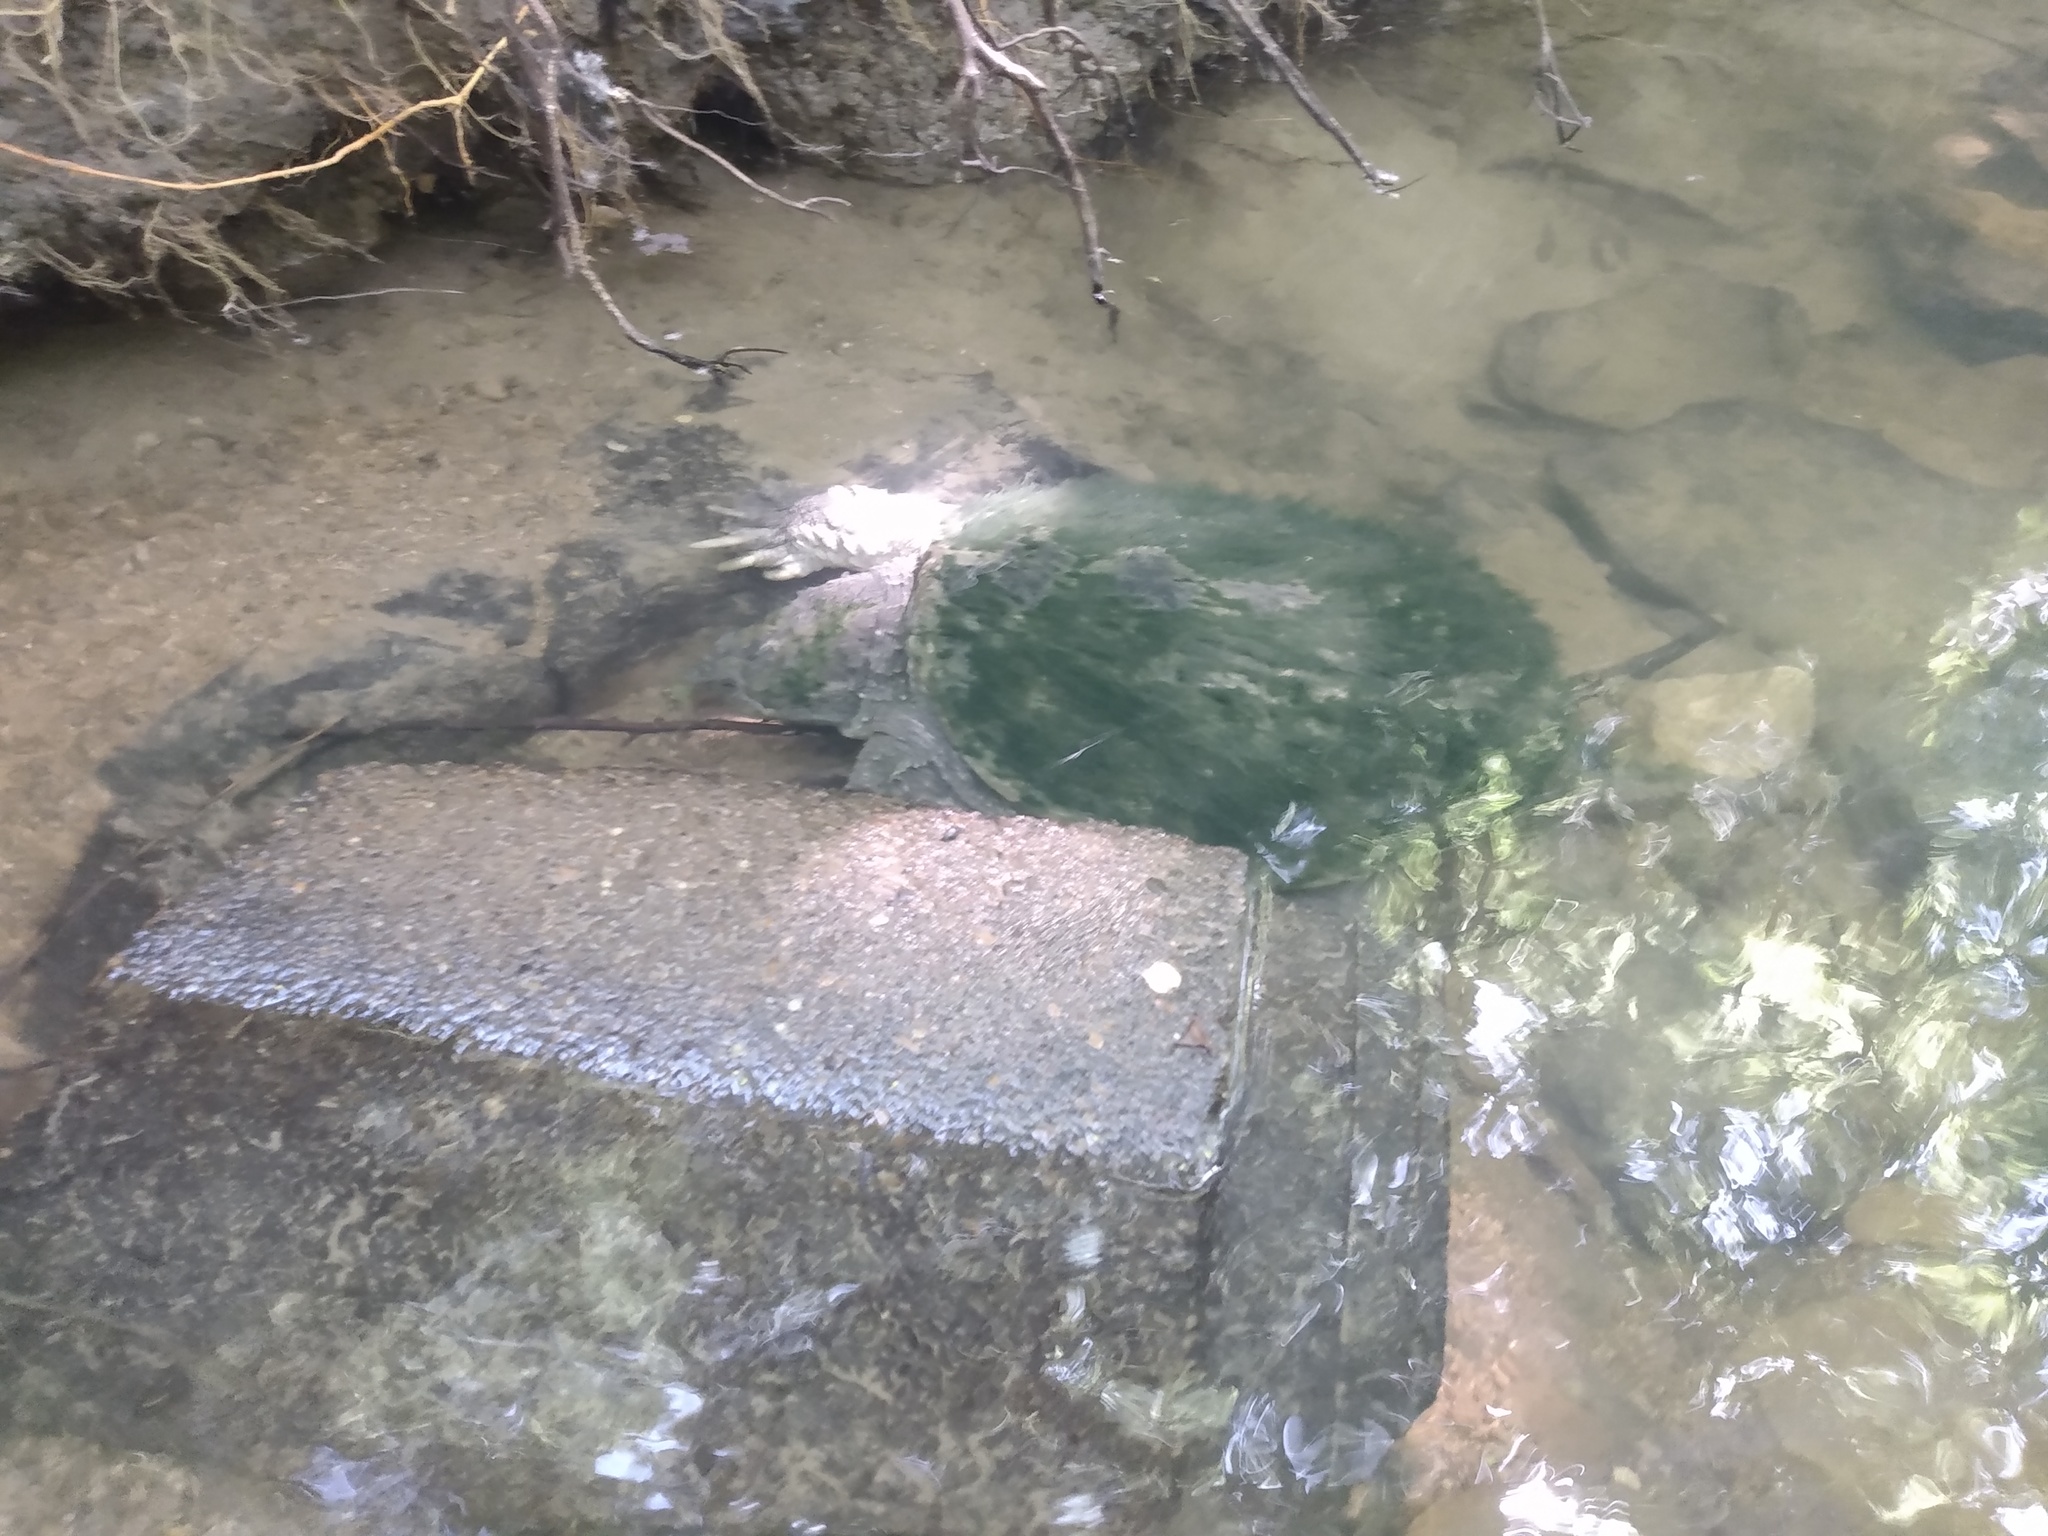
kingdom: Animalia
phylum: Chordata
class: Testudines
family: Chelydridae
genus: Chelydra
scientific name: Chelydra serpentina
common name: Common snapping turtle
